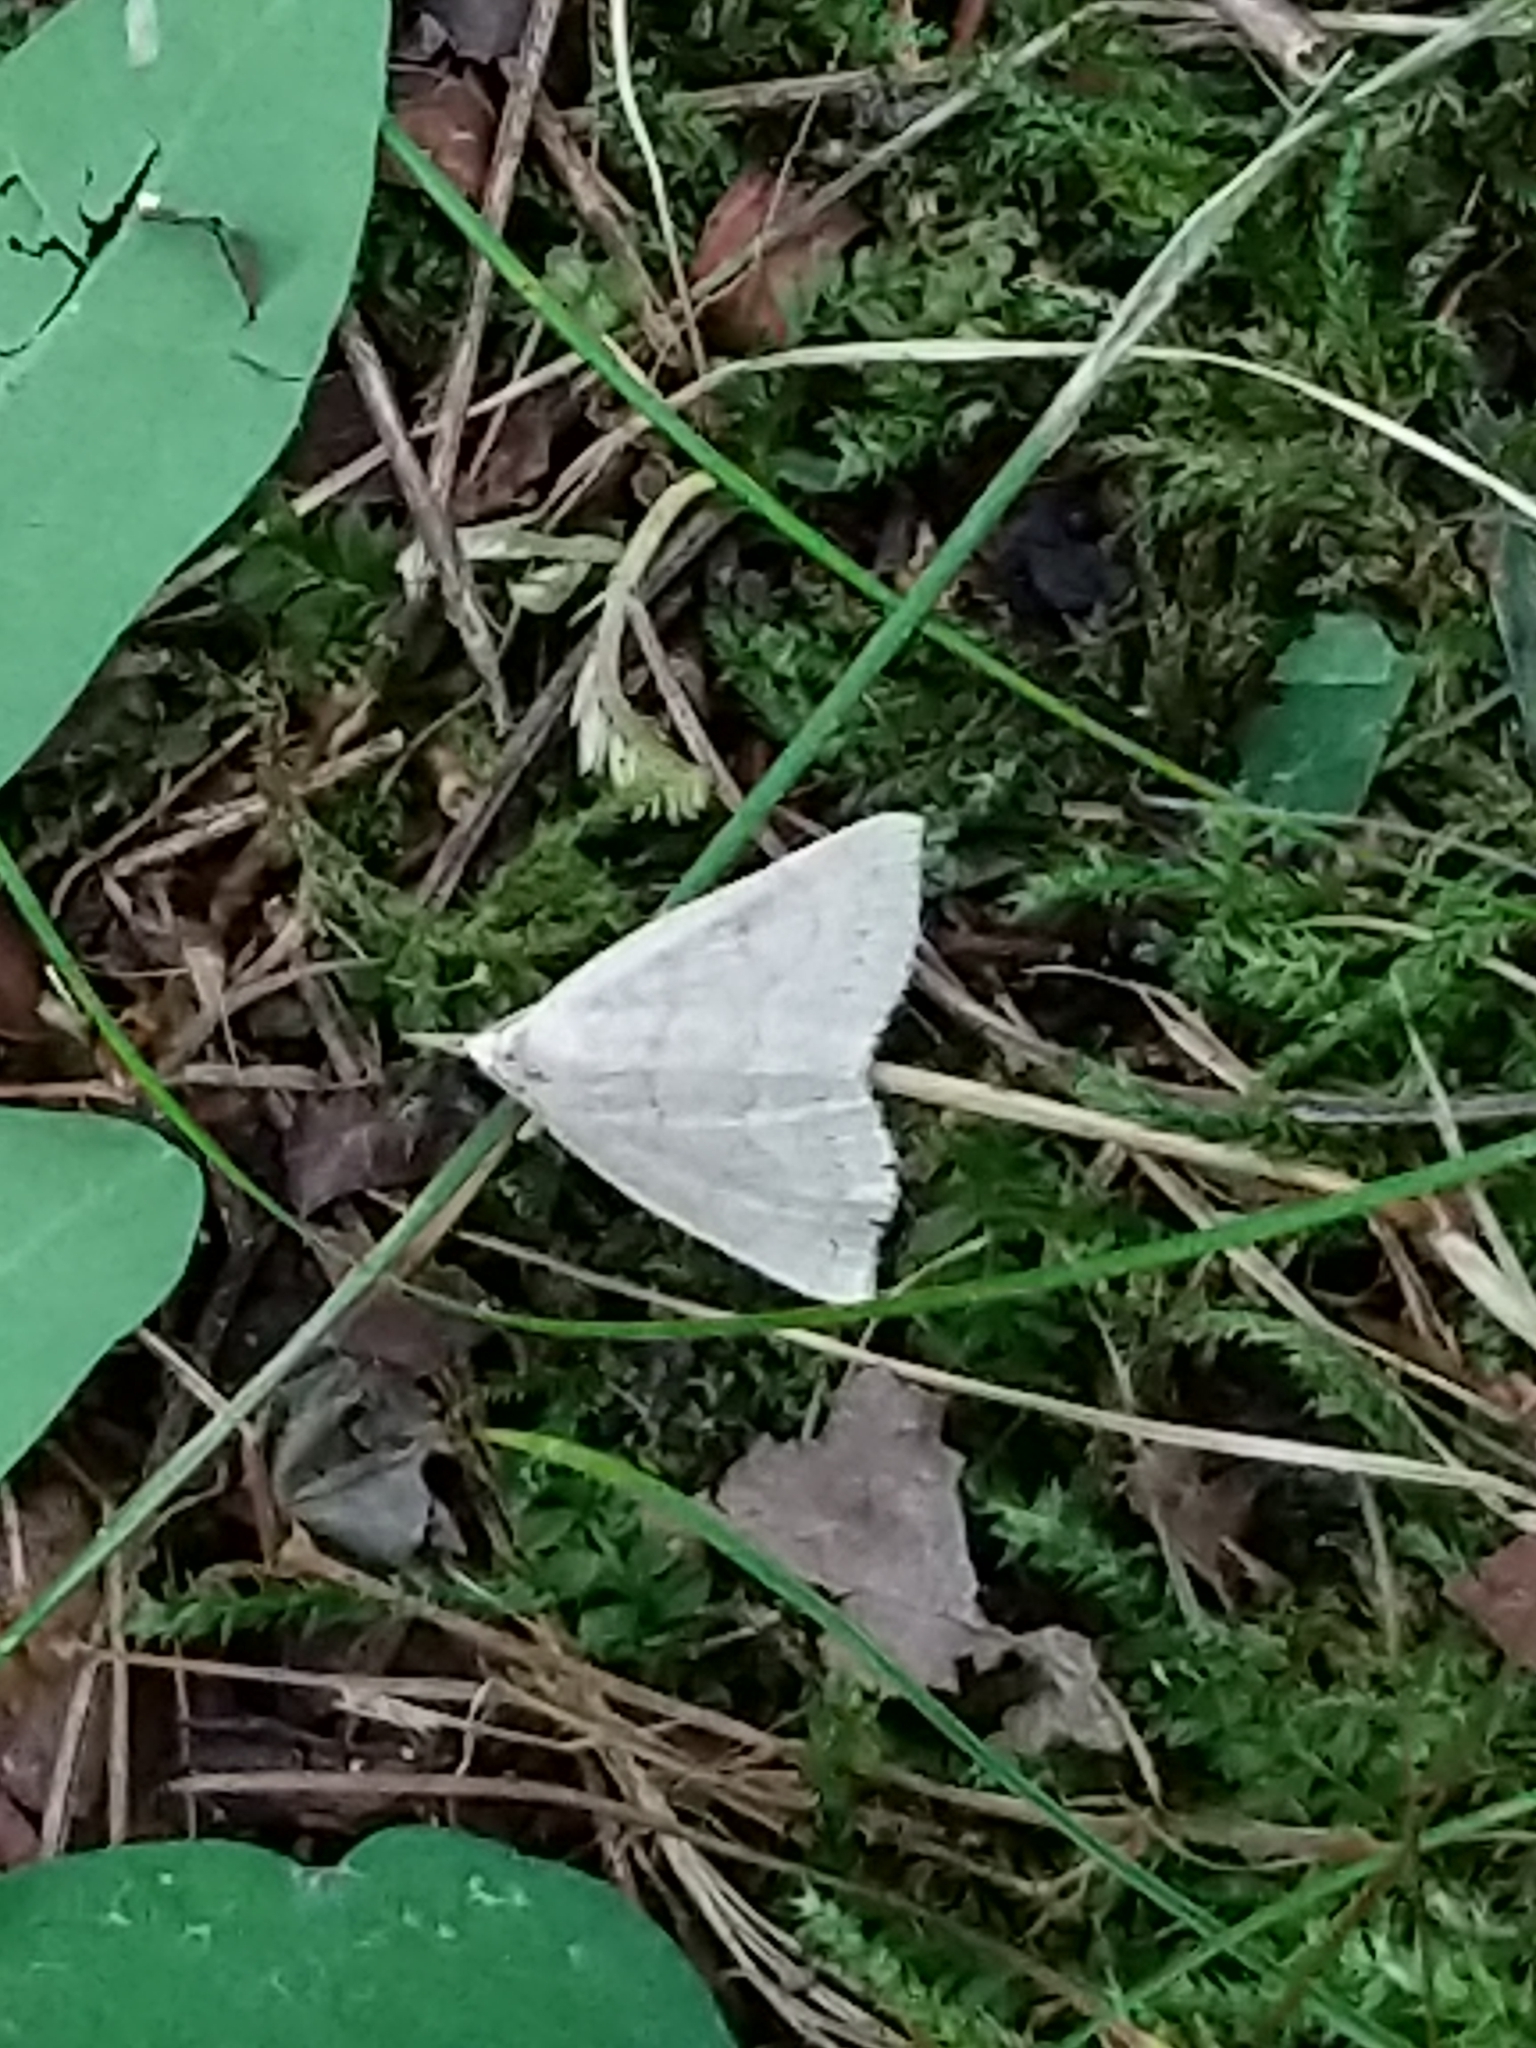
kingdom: Animalia
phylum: Arthropoda
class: Insecta
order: Lepidoptera
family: Erebidae
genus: Macrochilo
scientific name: Macrochilo morbidalis
